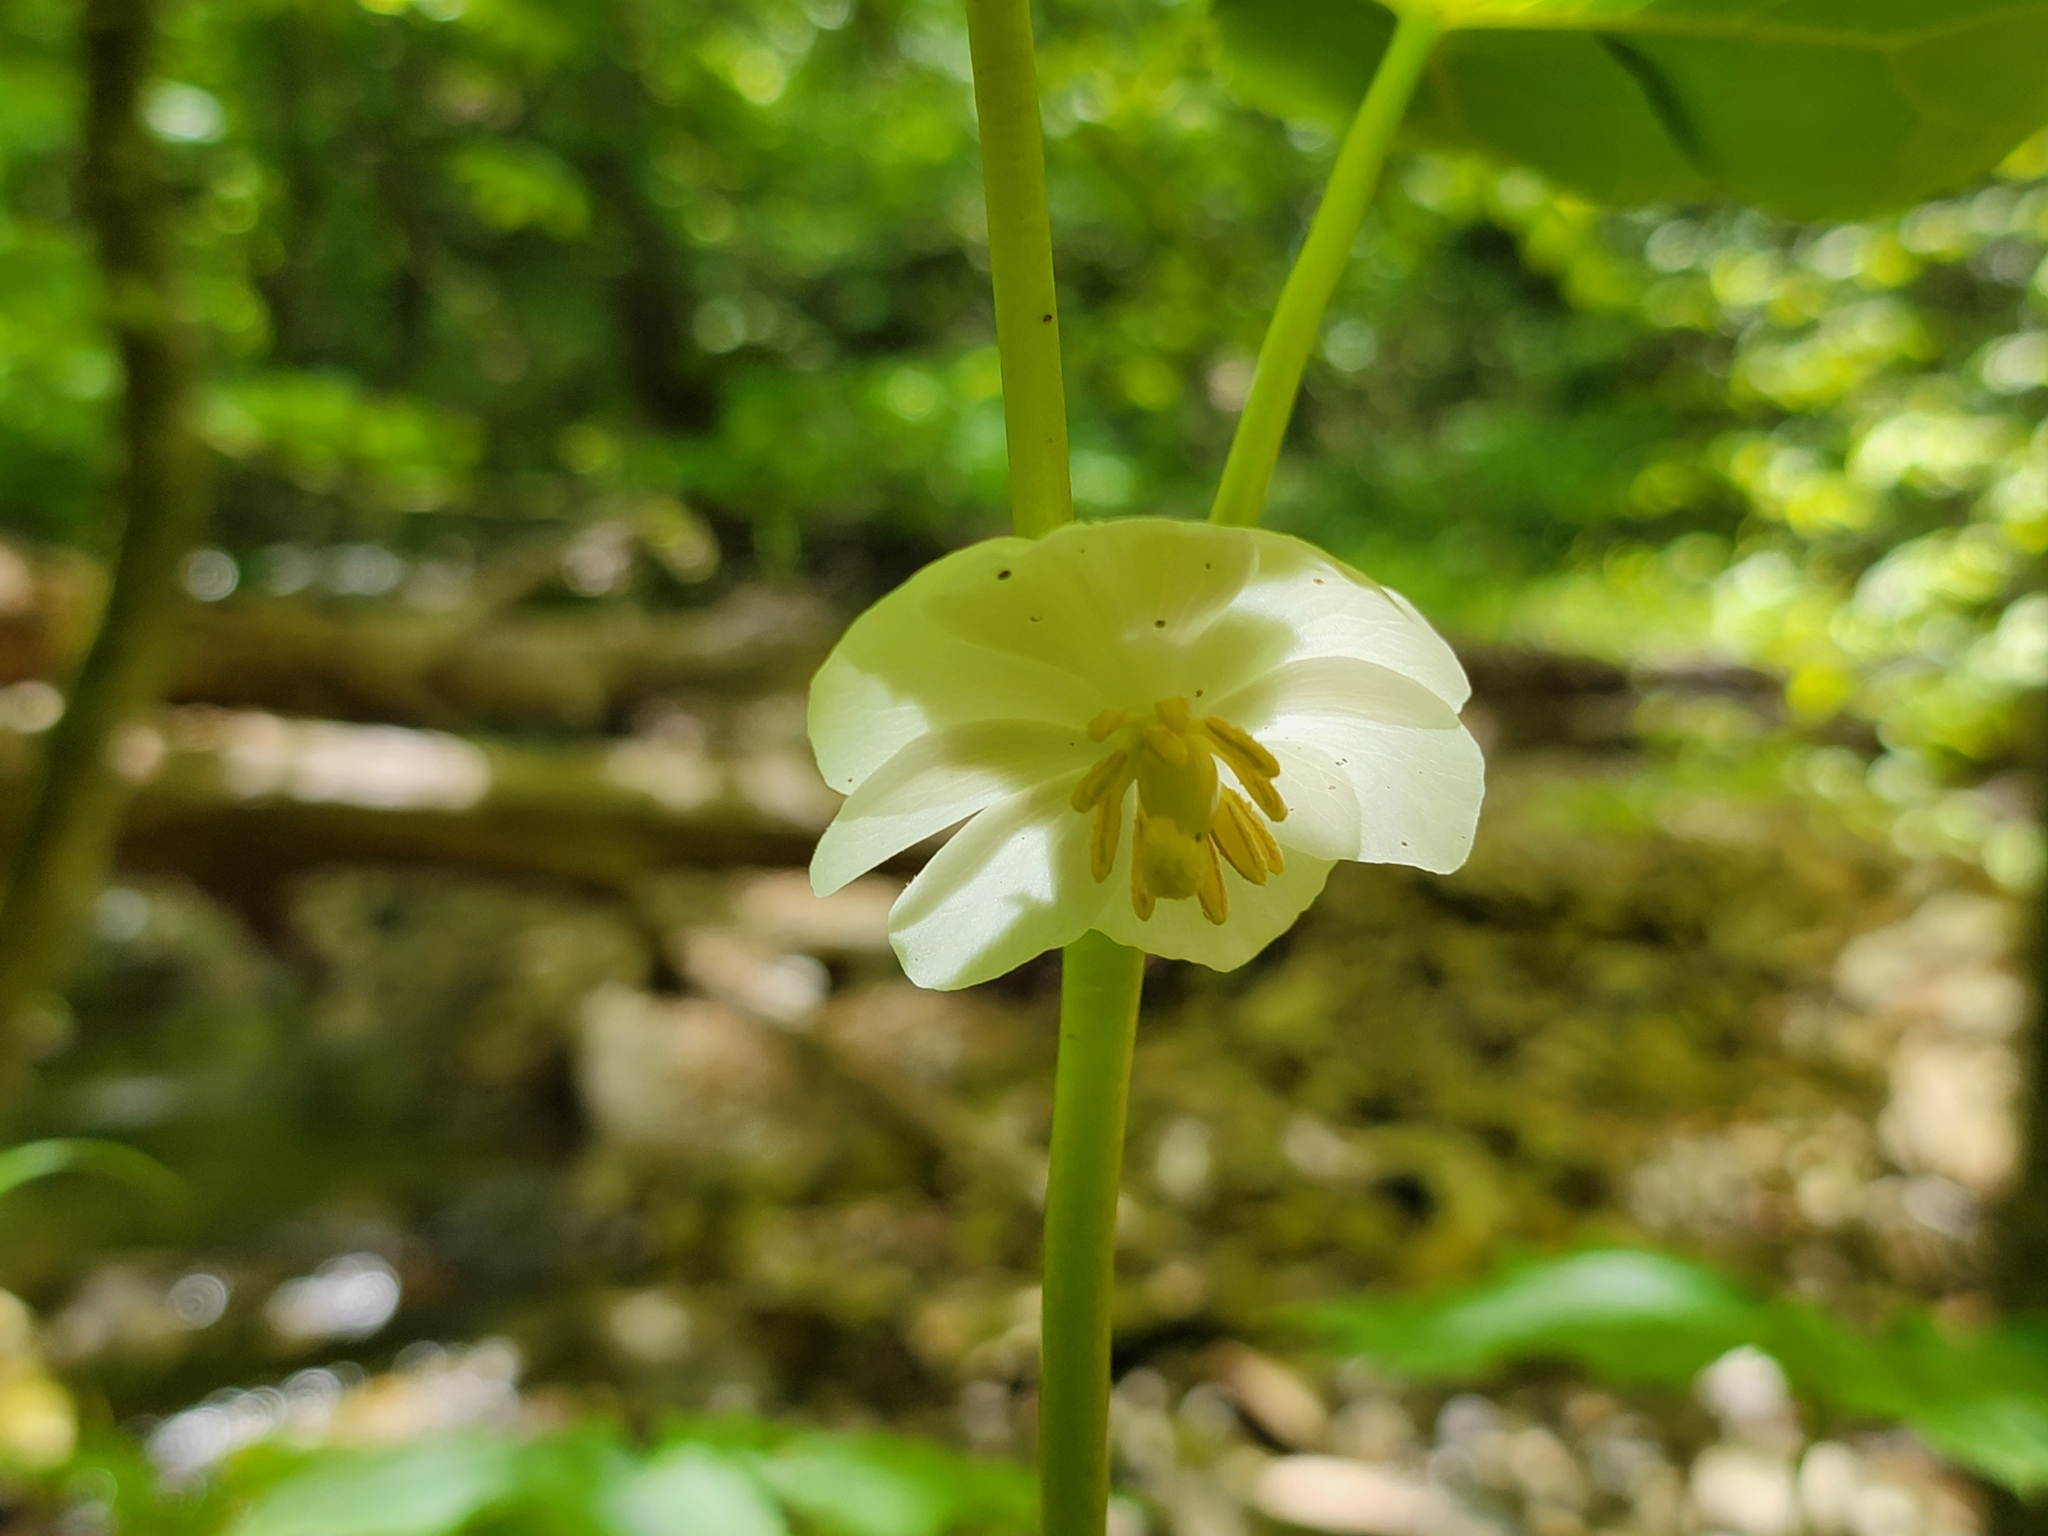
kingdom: Plantae
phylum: Tracheophyta
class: Magnoliopsida
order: Ranunculales
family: Berberidaceae
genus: Podophyllum
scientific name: Podophyllum peltatum
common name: Wild mandrake
